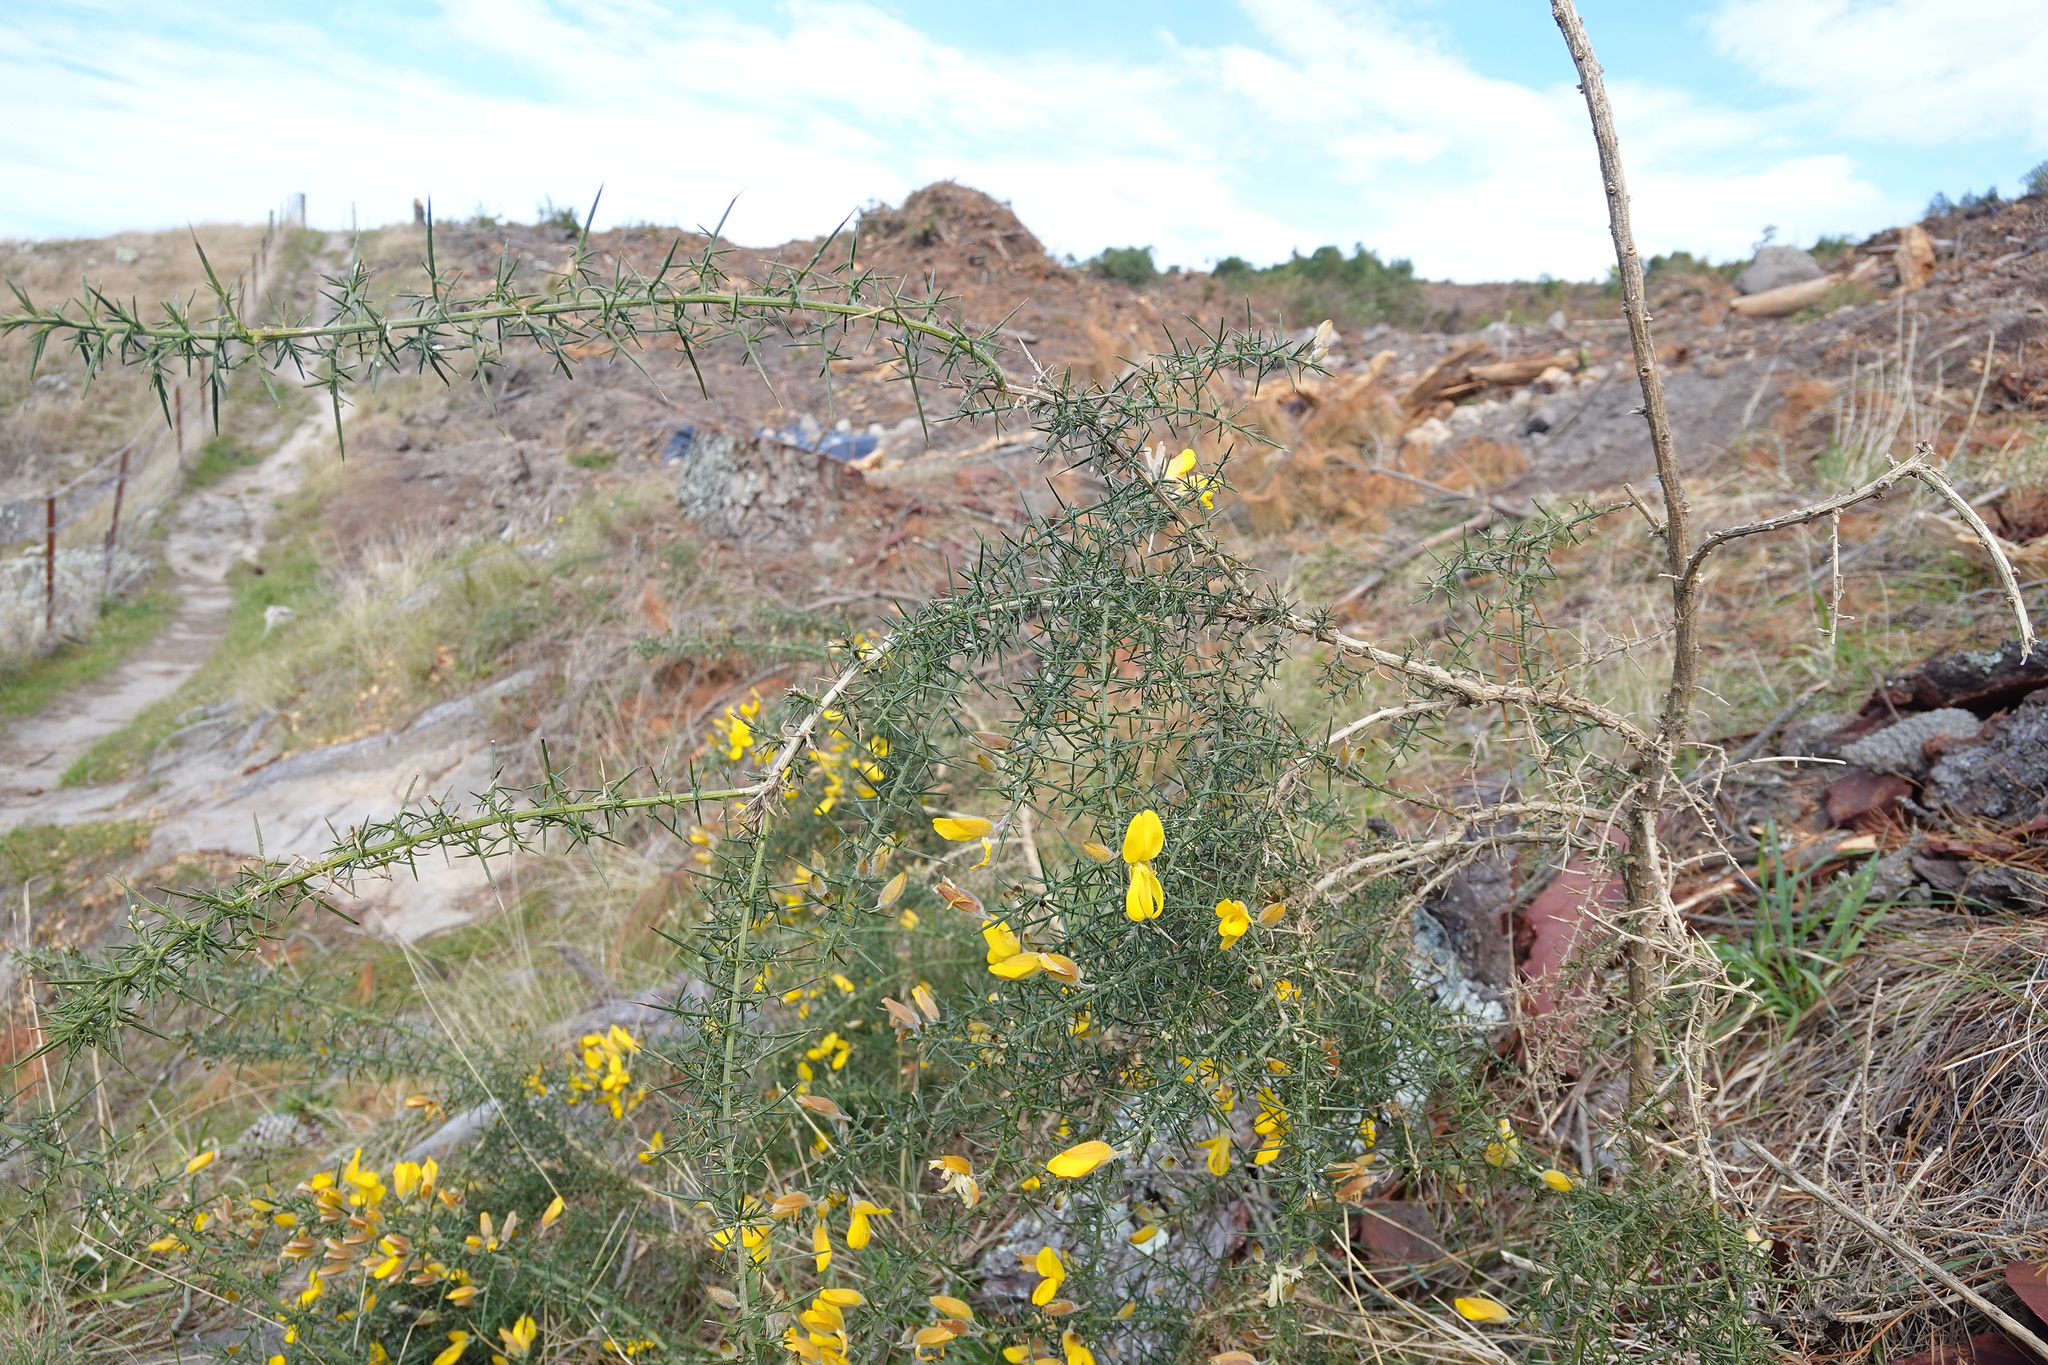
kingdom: Plantae
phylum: Tracheophyta
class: Magnoliopsida
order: Fabales
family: Fabaceae
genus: Ulex
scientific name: Ulex europaeus
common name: Common gorse
